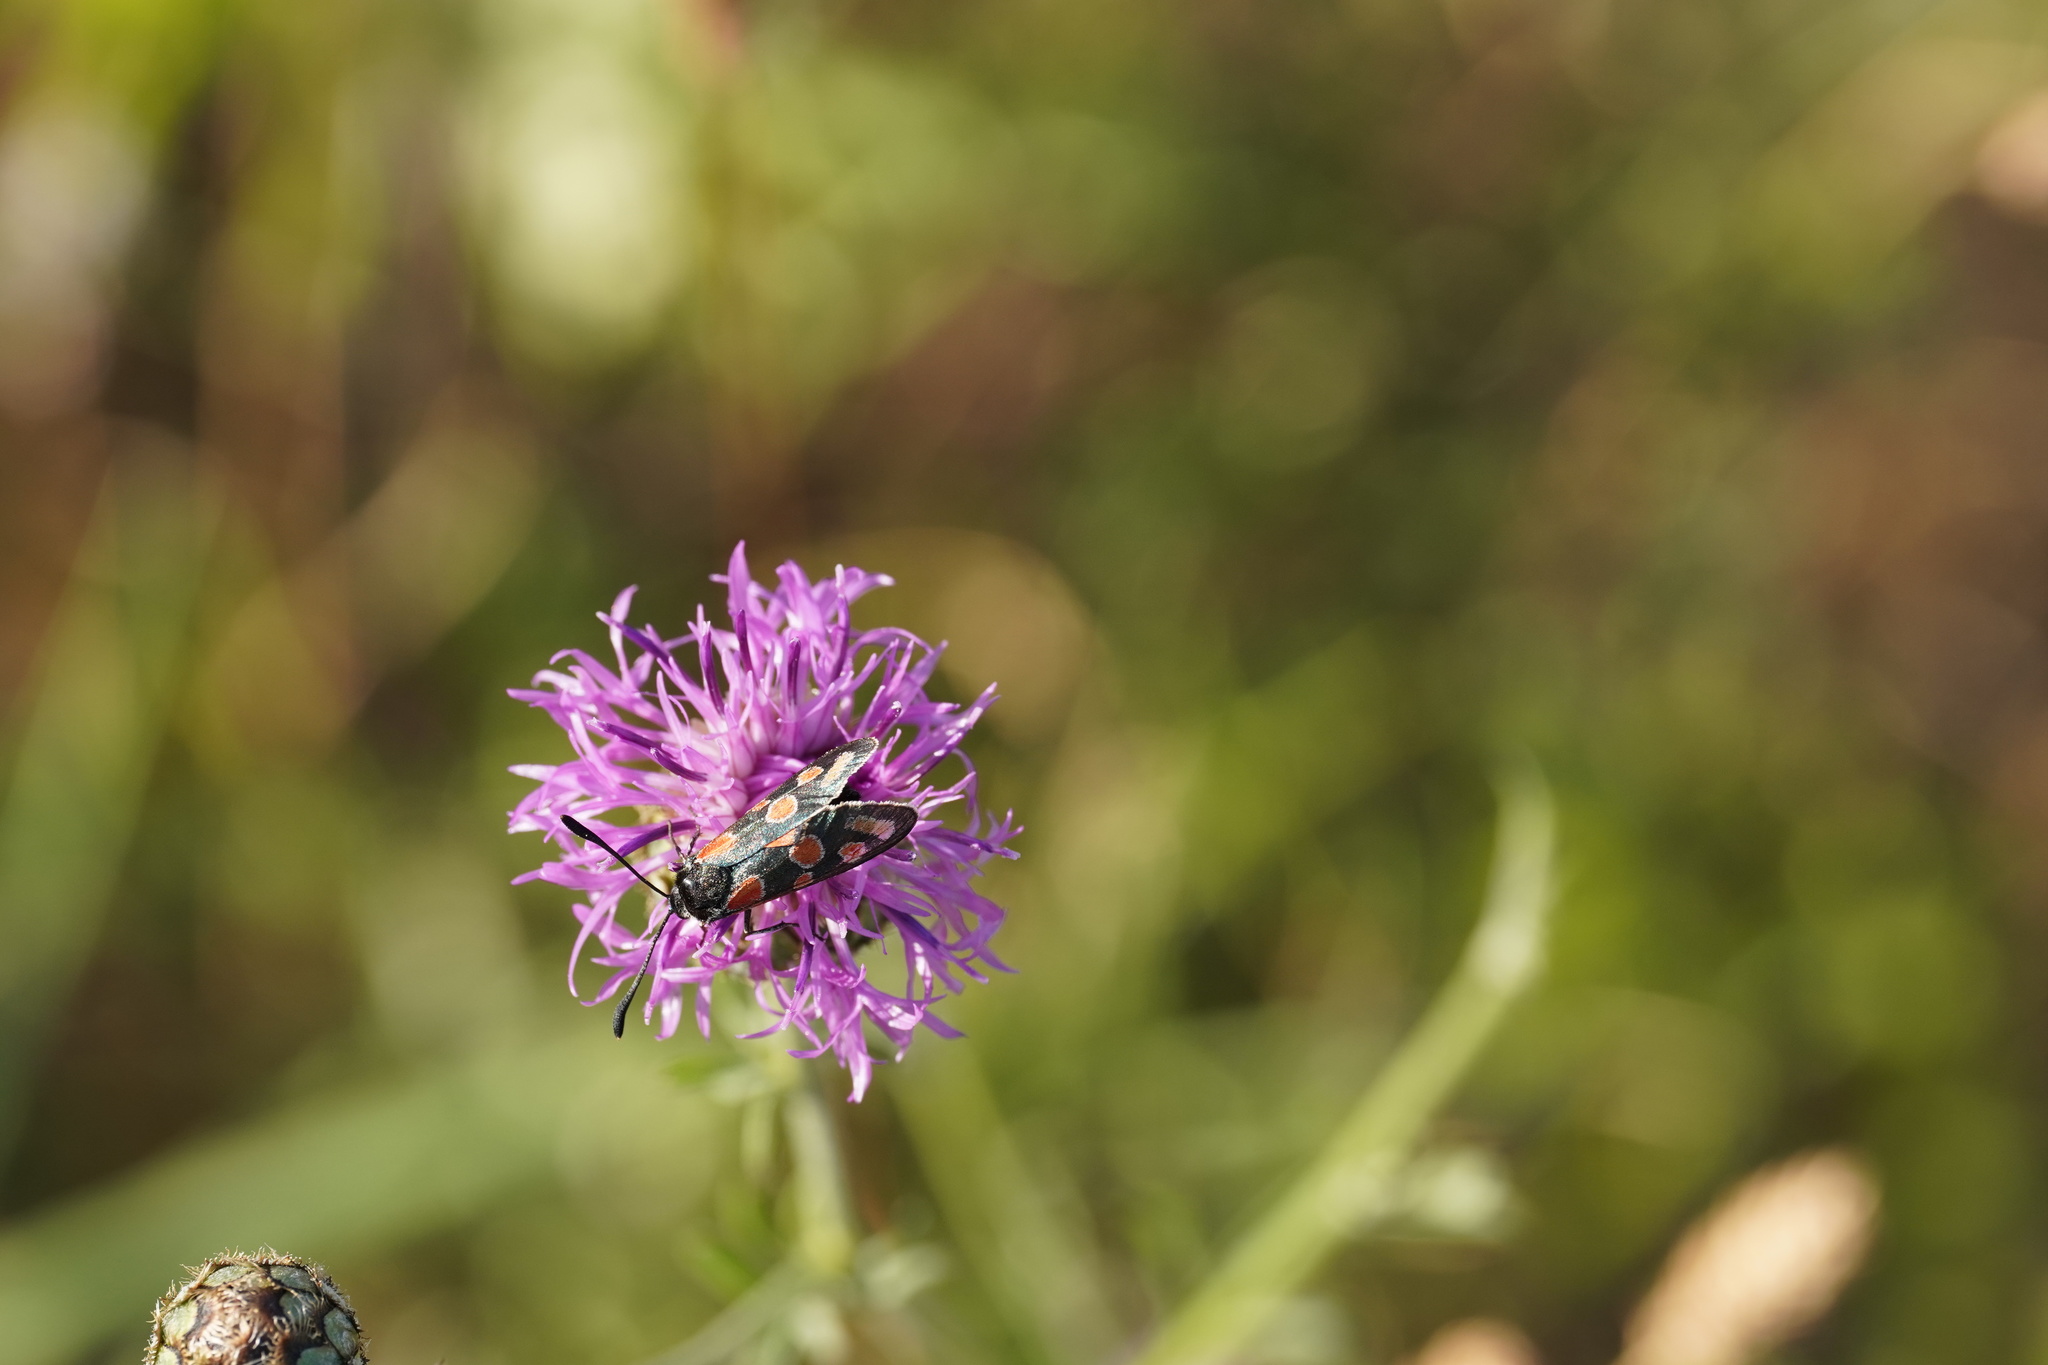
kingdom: Animalia
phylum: Arthropoda
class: Insecta
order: Lepidoptera
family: Zygaenidae
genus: Zygaena
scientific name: Zygaena carniolica
